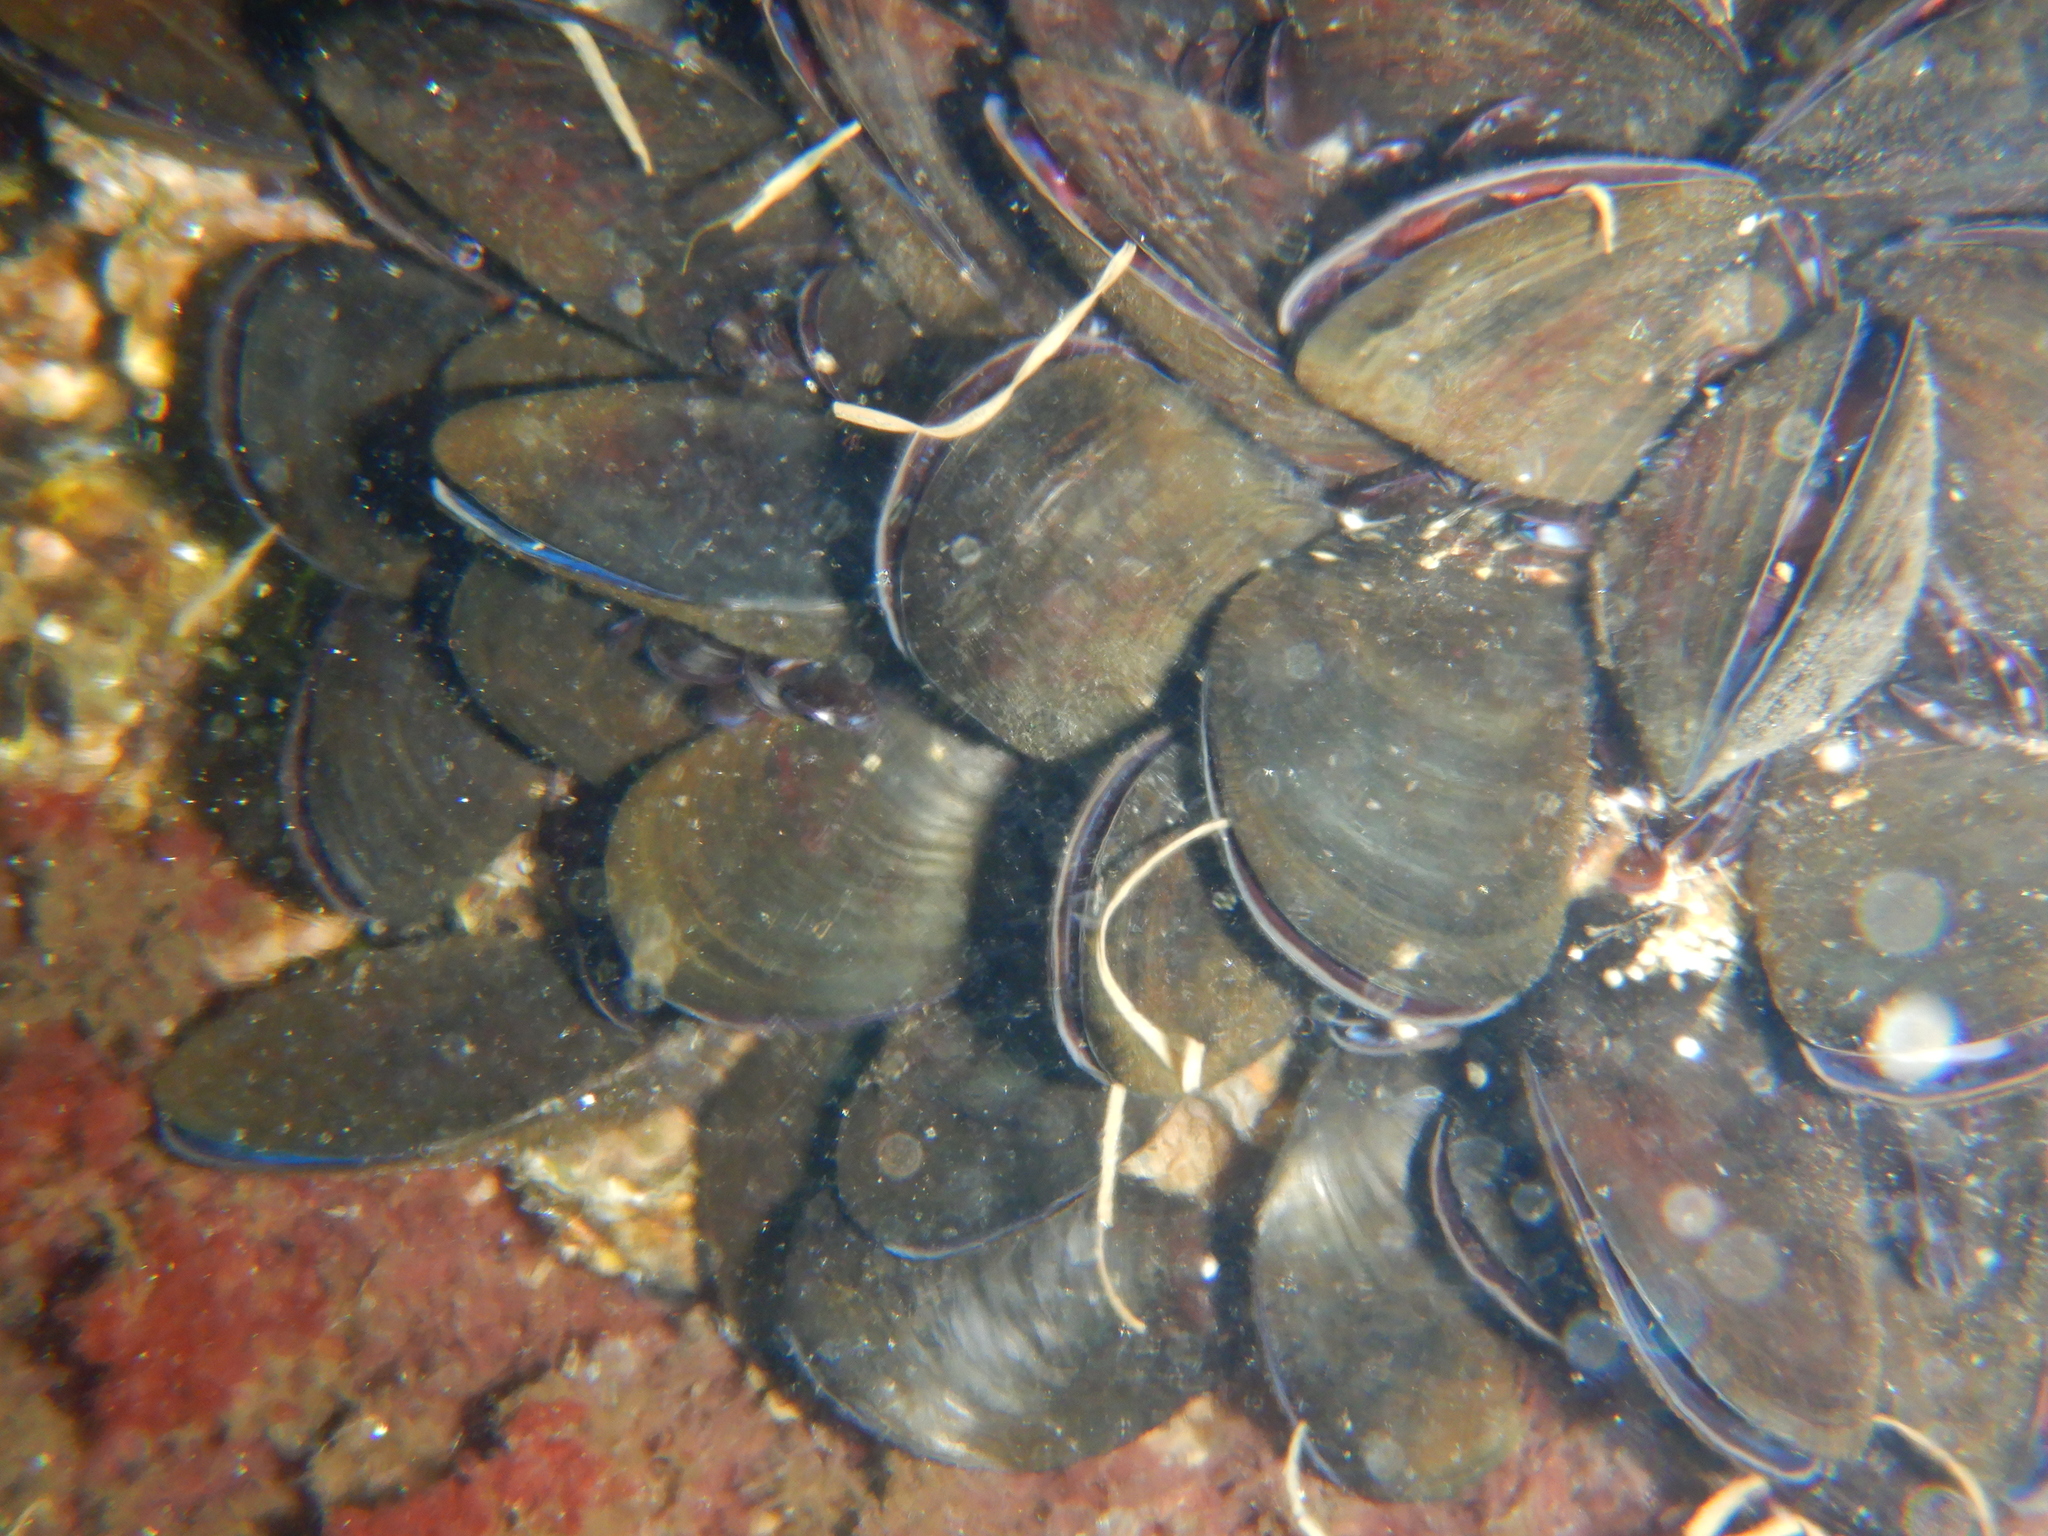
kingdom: Animalia
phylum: Mollusca
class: Bivalvia
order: Mytilida
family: Mytilidae
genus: Mytilus
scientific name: Mytilus galloprovincialis
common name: Mediterranean mussel
